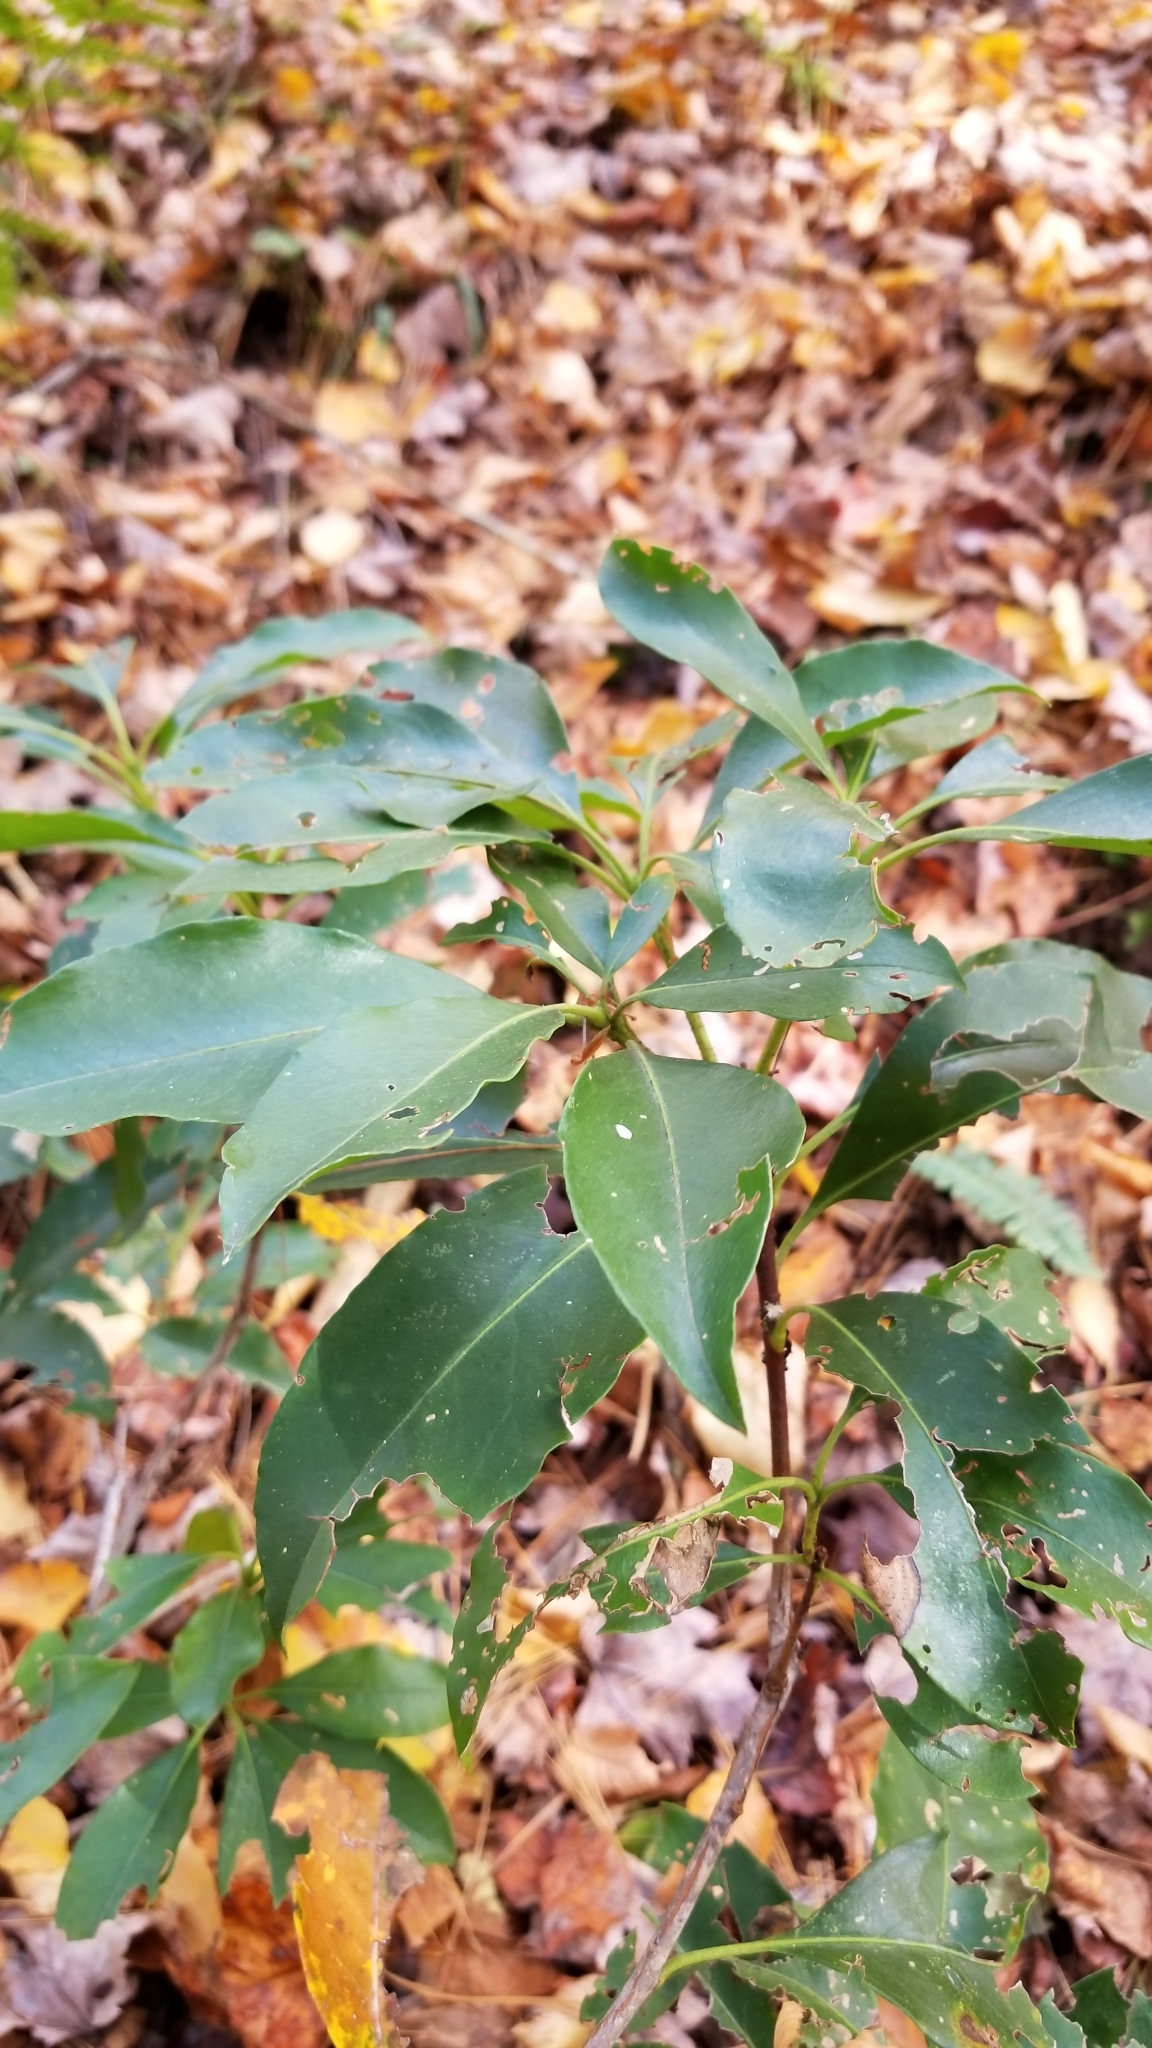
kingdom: Plantae
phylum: Tracheophyta
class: Magnoliopsida
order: Ericales
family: Ericaceae
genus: Kalmia
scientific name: Kalmia latifolia
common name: Mountain-laurel
